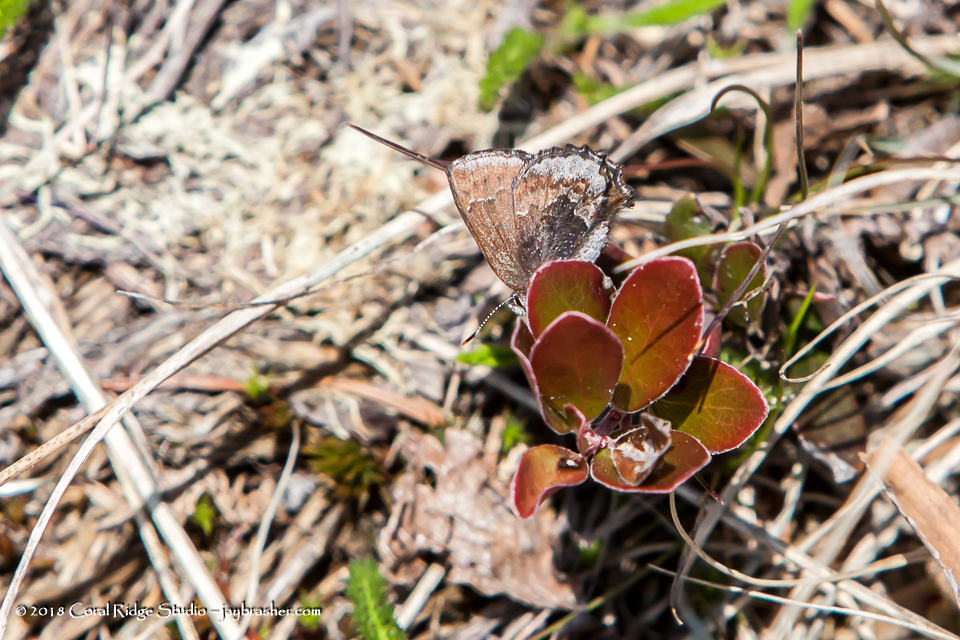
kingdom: Animalia
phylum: Arthropoda
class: Insecta
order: Lepidoptera
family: Lycaenidae
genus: Callophrys
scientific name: Callophrys polios
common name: Hoary elfin
